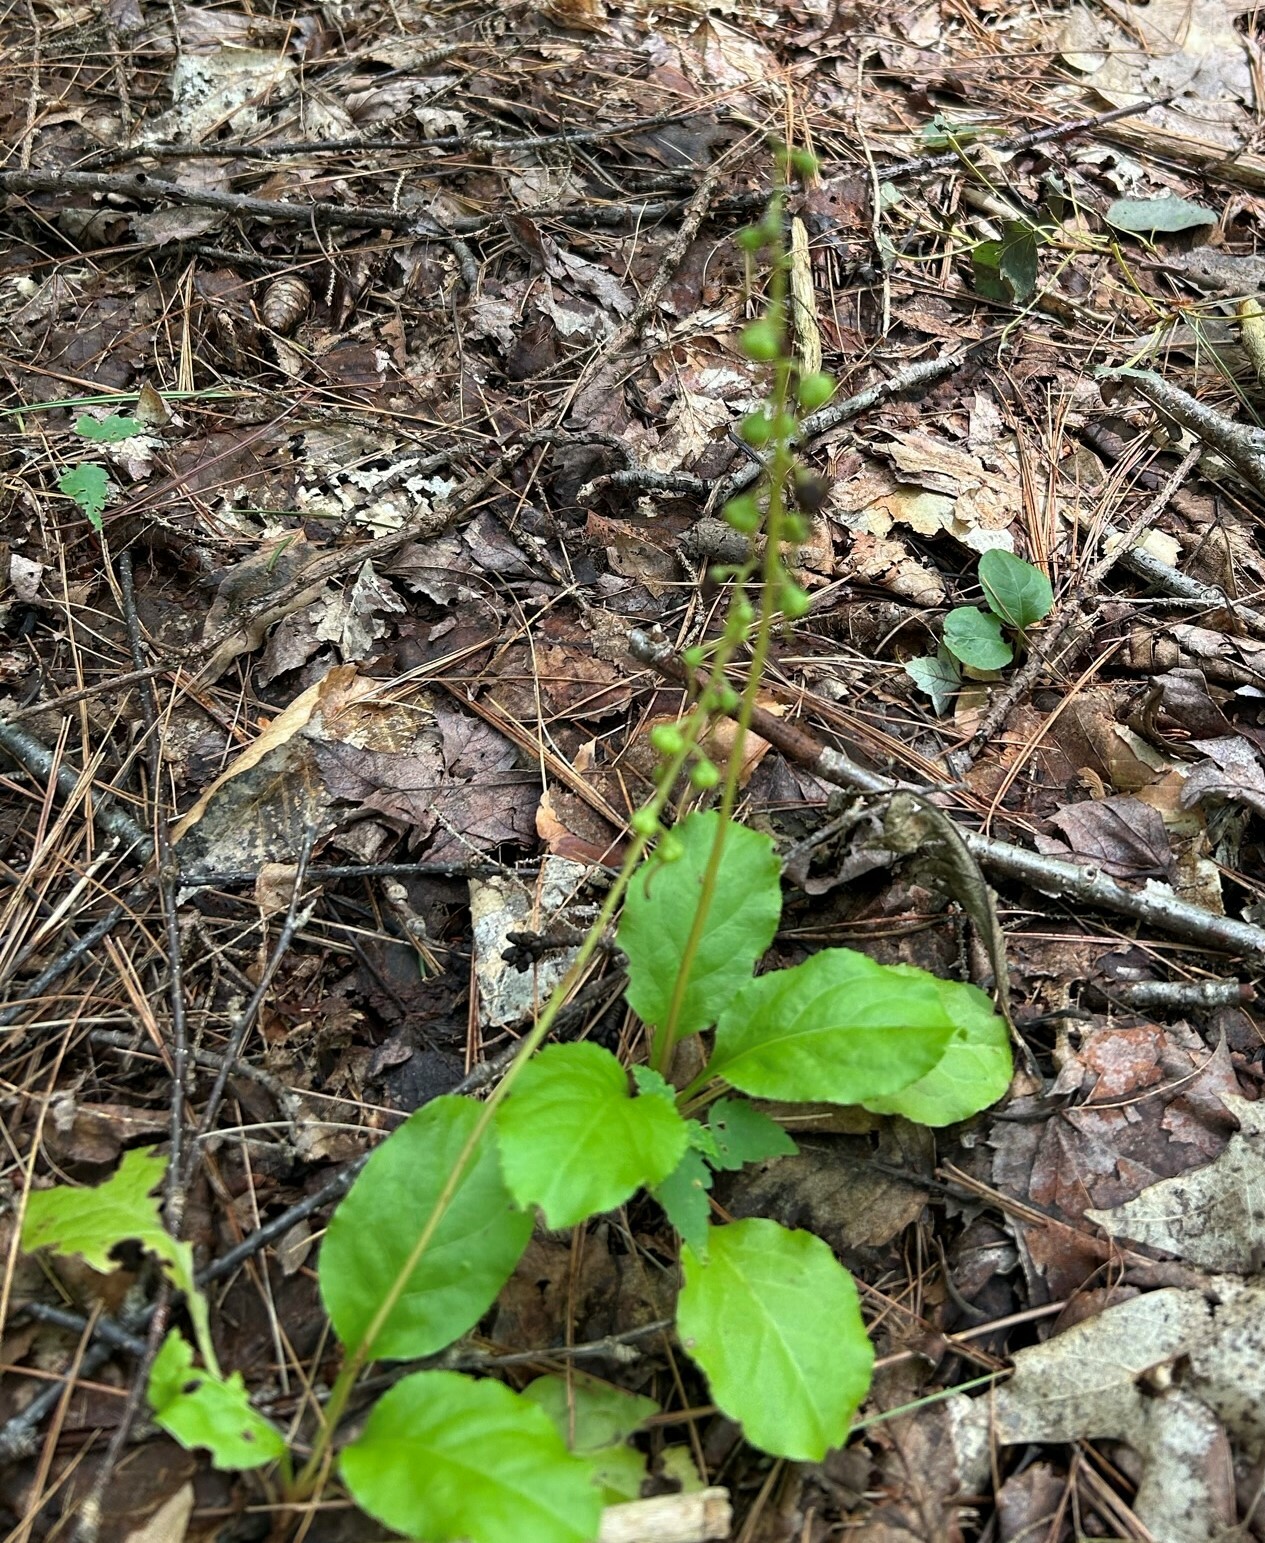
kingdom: Plantae
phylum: Tracheophyta
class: Magnoliopsida
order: Ericales
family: Ericaceae
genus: Pyrola
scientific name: Pyrola elliptica
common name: Shinleaf
